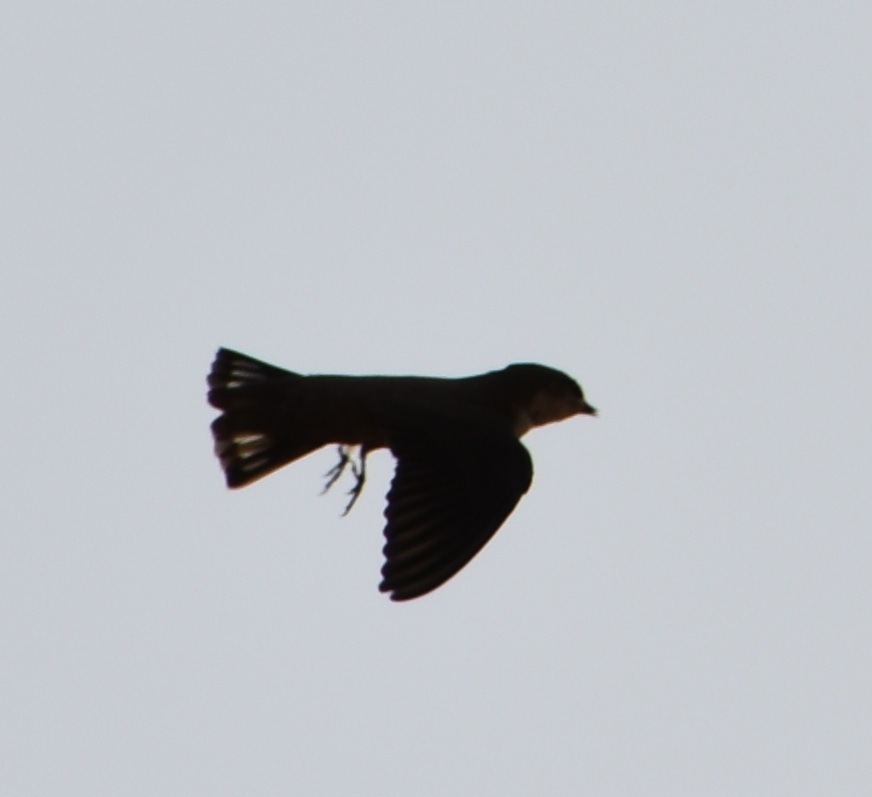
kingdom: Animalia
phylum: Chordata
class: Aves
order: Passeriformes
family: Hirundinidae
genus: Ptyonoprogne
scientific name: Ptyonoprogne fuligula
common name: Rock martin
